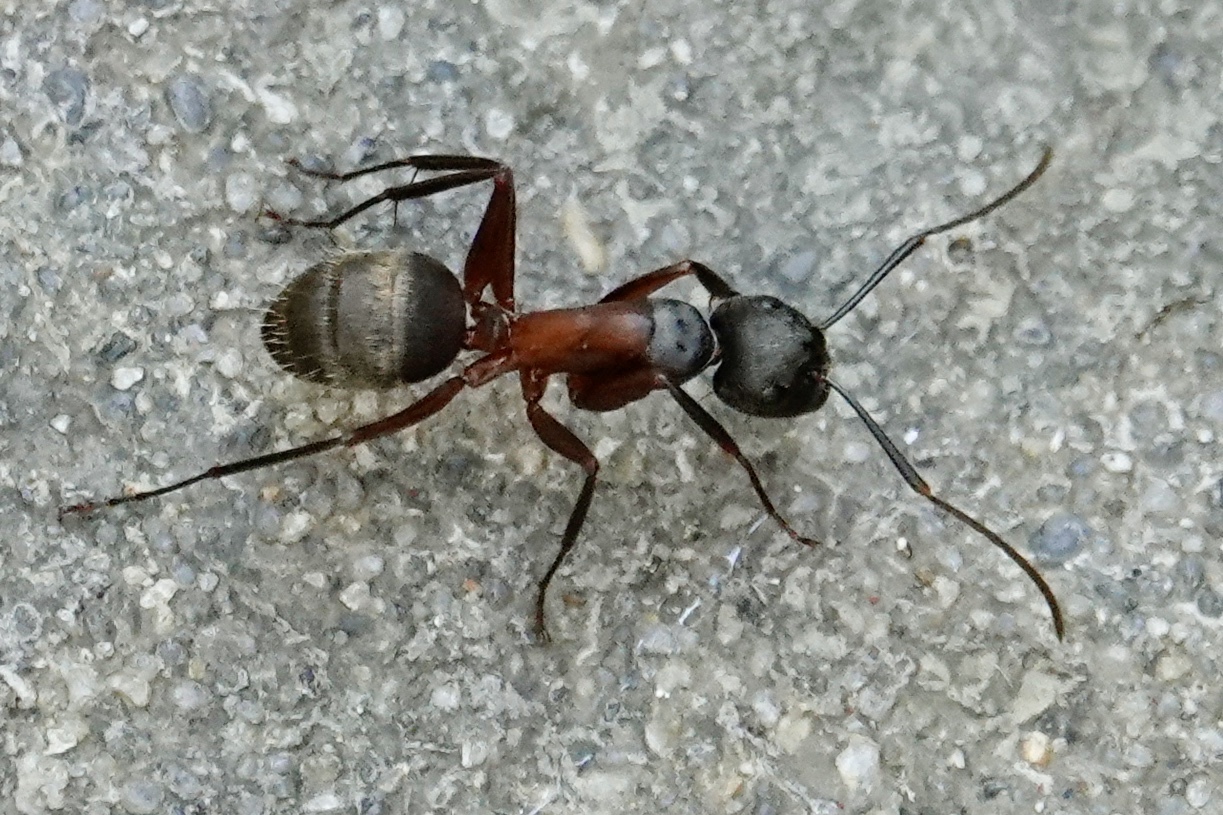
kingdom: Animalia
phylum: Arthropoda
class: Insecta
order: Hymenoptera
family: Formicidae
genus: Camponotus
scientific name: Camponotus chromaiodes
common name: Red carpenter ant
